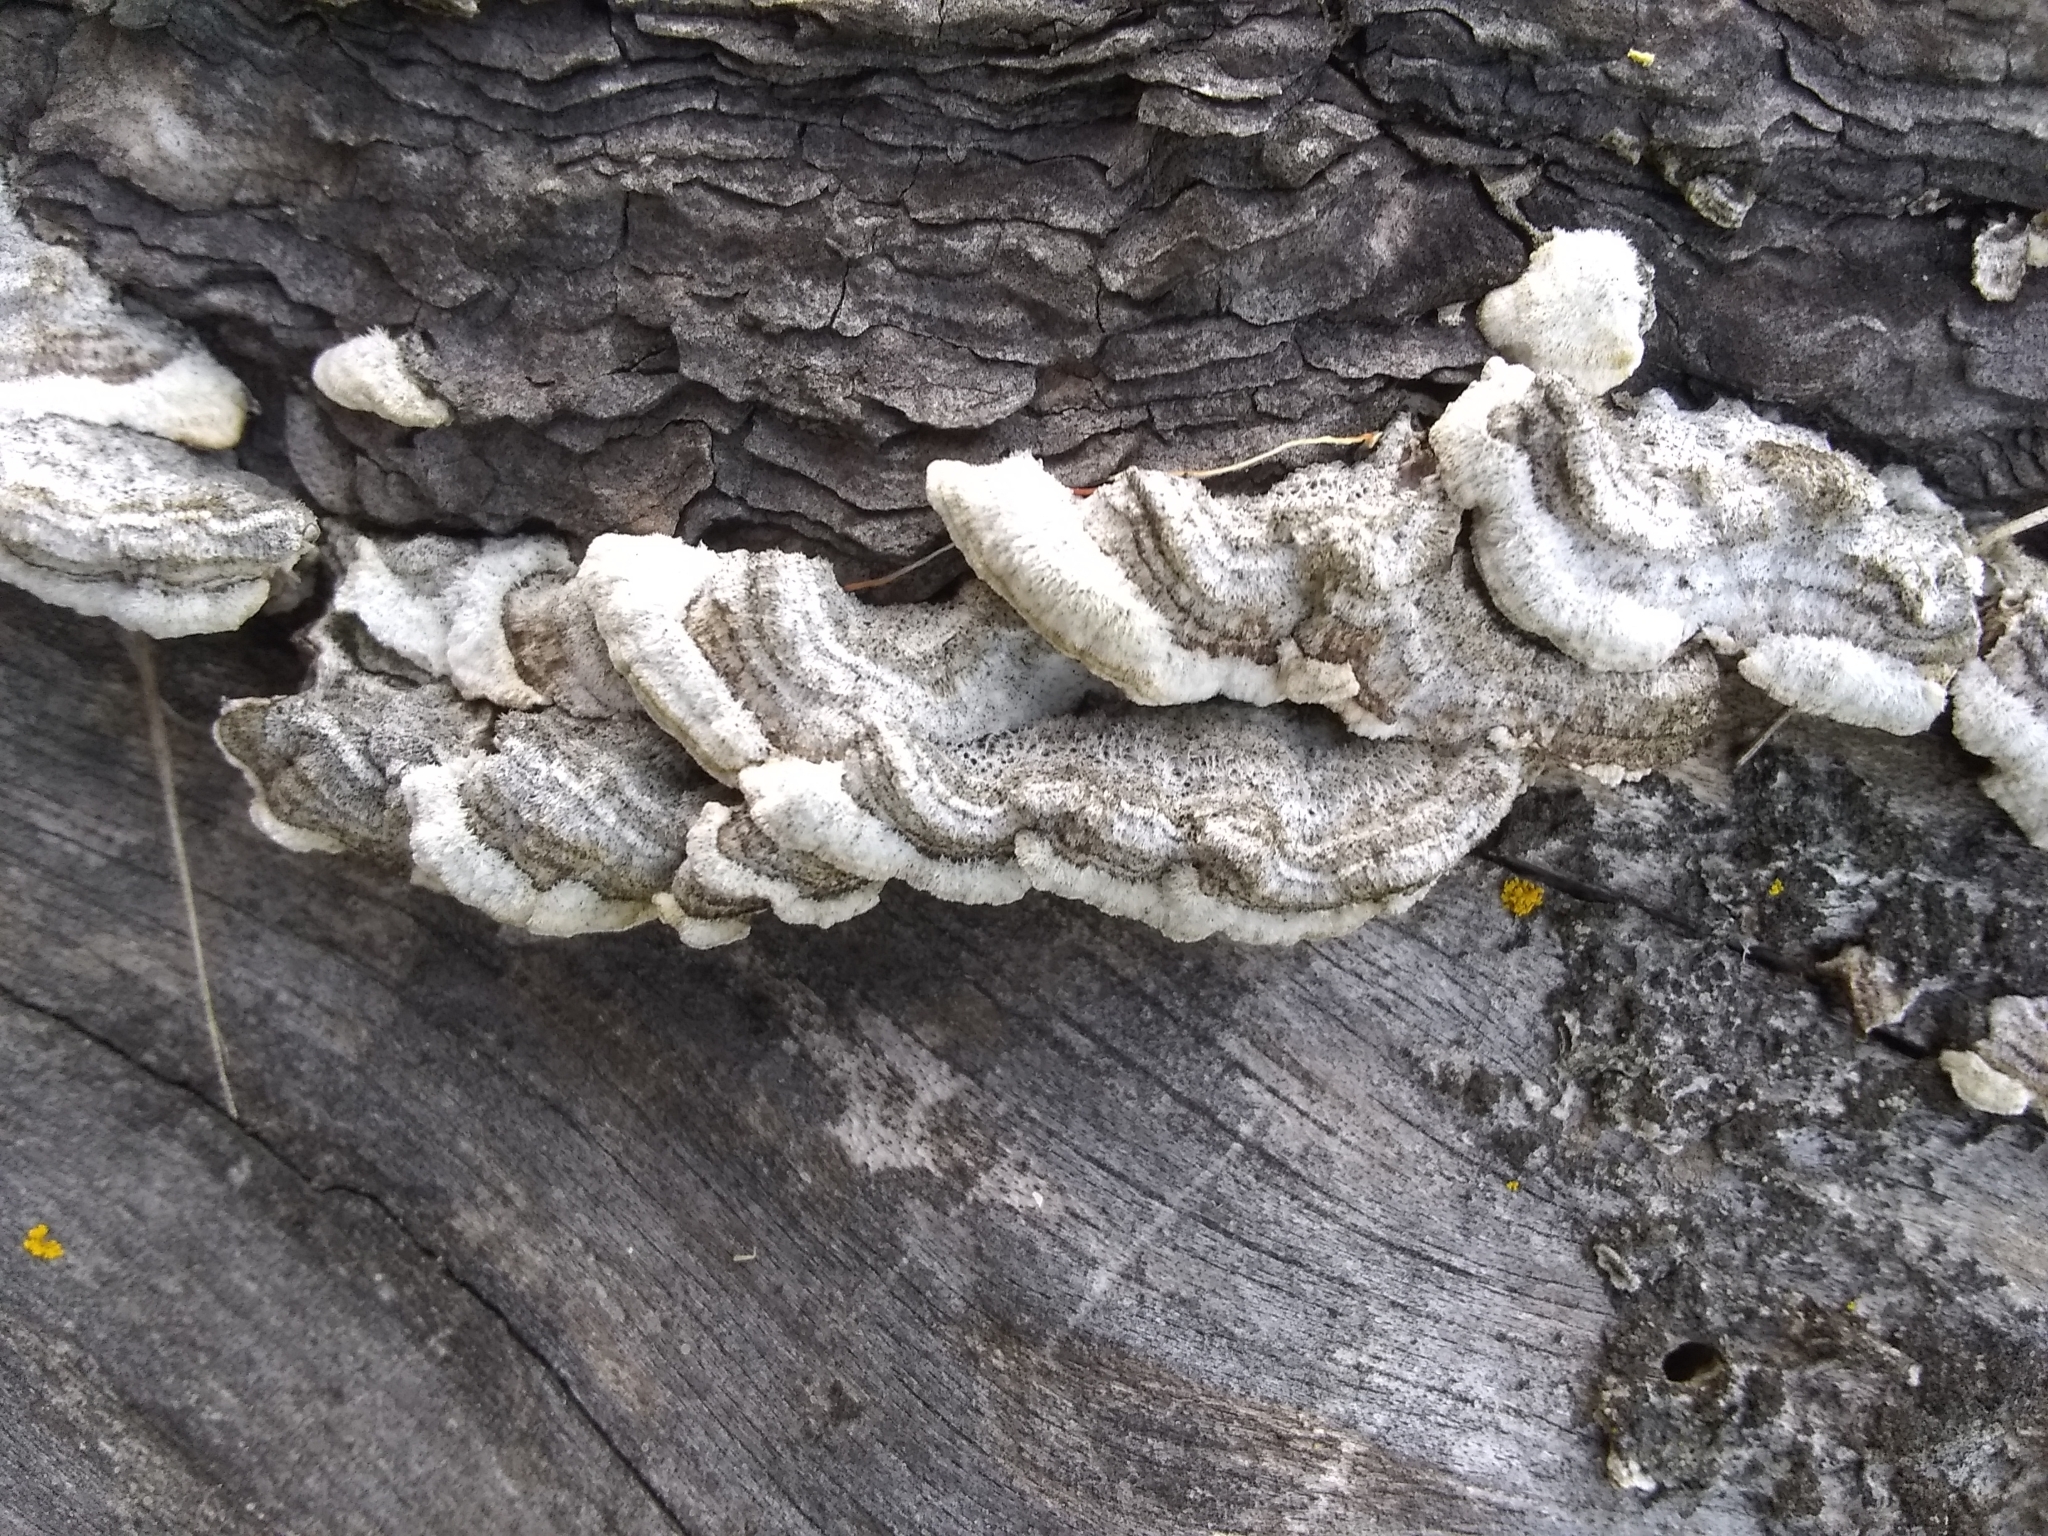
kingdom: Fungi
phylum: Basidiomycota
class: Agaricomycetes
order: Russulales
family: Stereaceae
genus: Stereum
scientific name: Stereum hirsutum
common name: Hairy curtain crust
